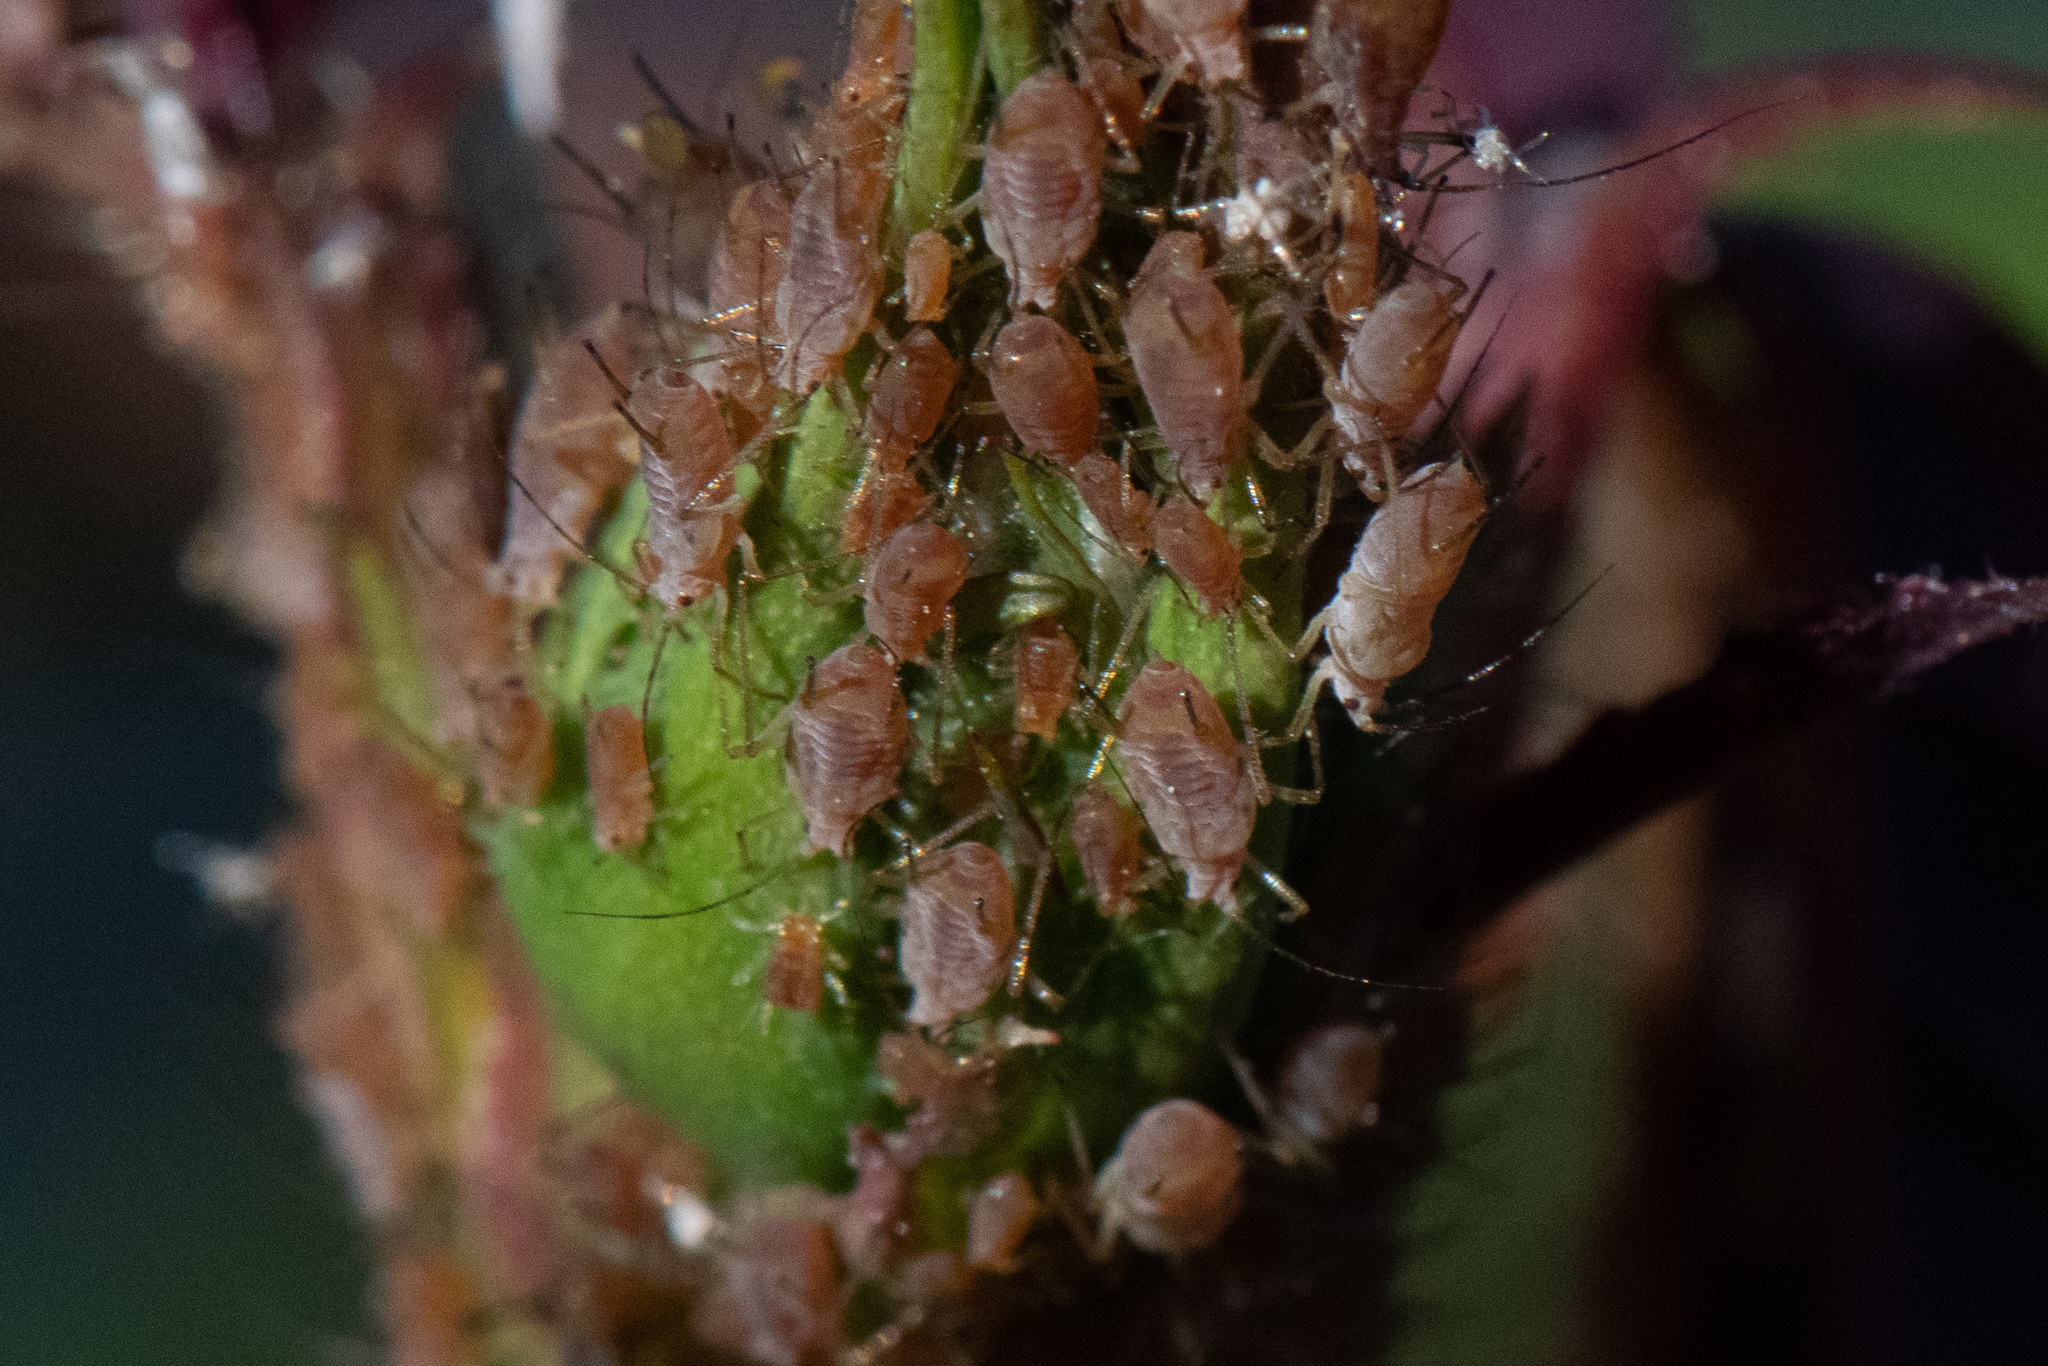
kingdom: Animalia
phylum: Arthropoda
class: Insecta
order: Hemiptera
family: Aphididae
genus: Macrosiphum
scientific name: Macrosiphum rosae
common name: Rose aphid
